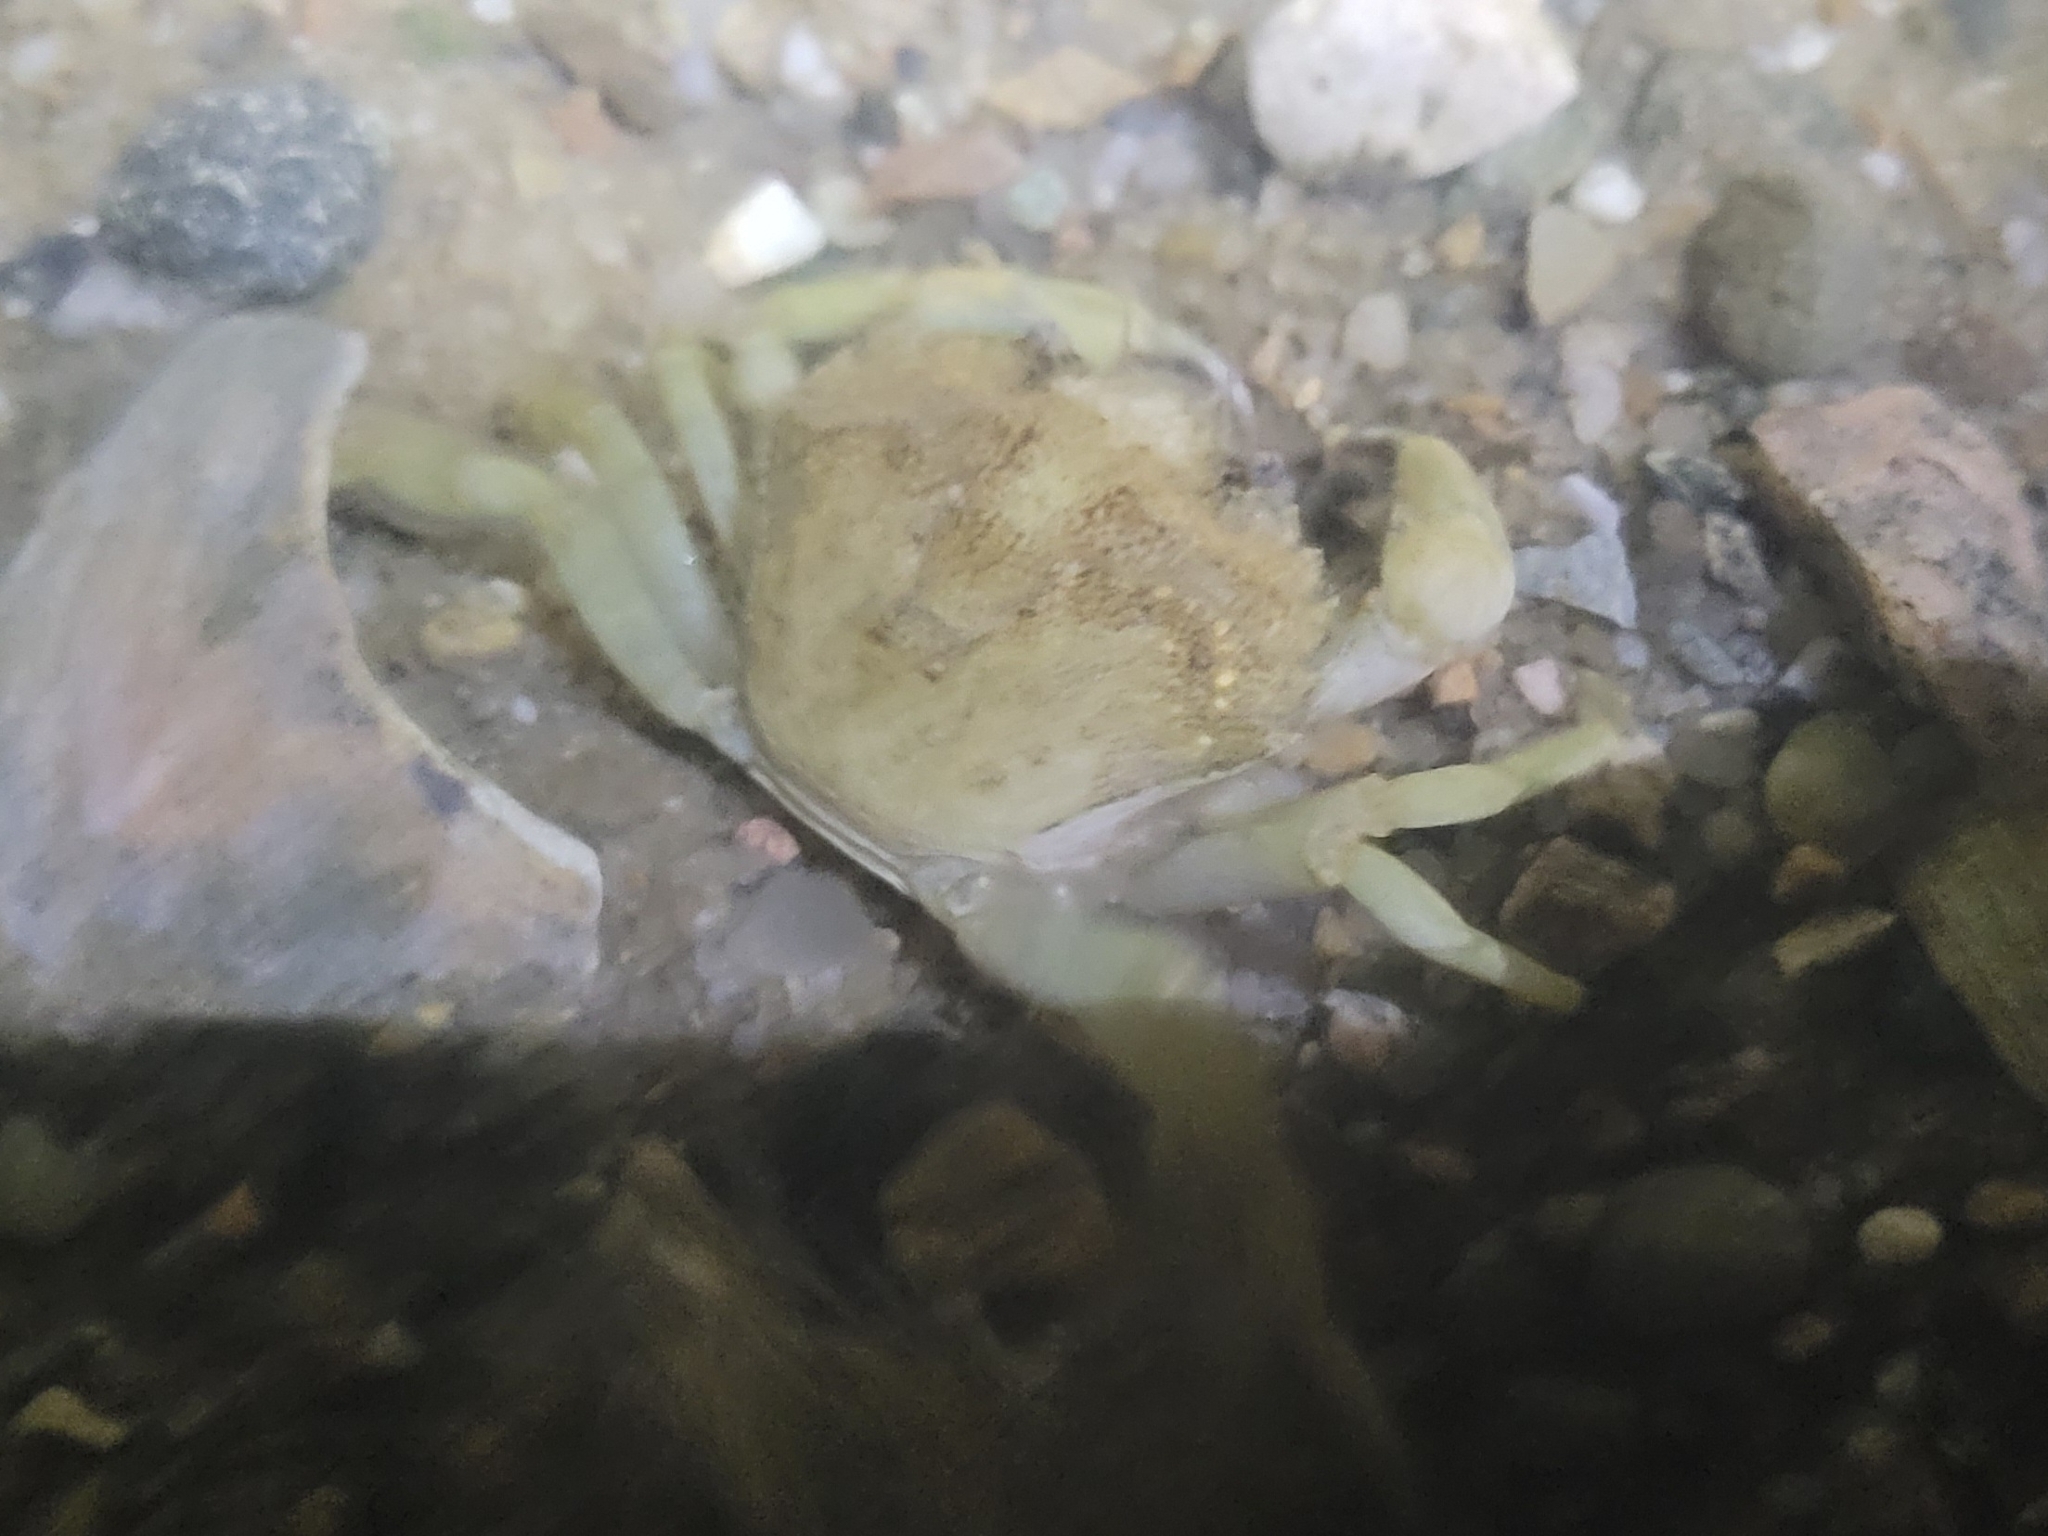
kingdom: Animalia
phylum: Arthropoda
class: Malacostraca
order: Decapoda
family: Carcinidae
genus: Carcinus
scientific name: Carcinus maenas
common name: European green crab
